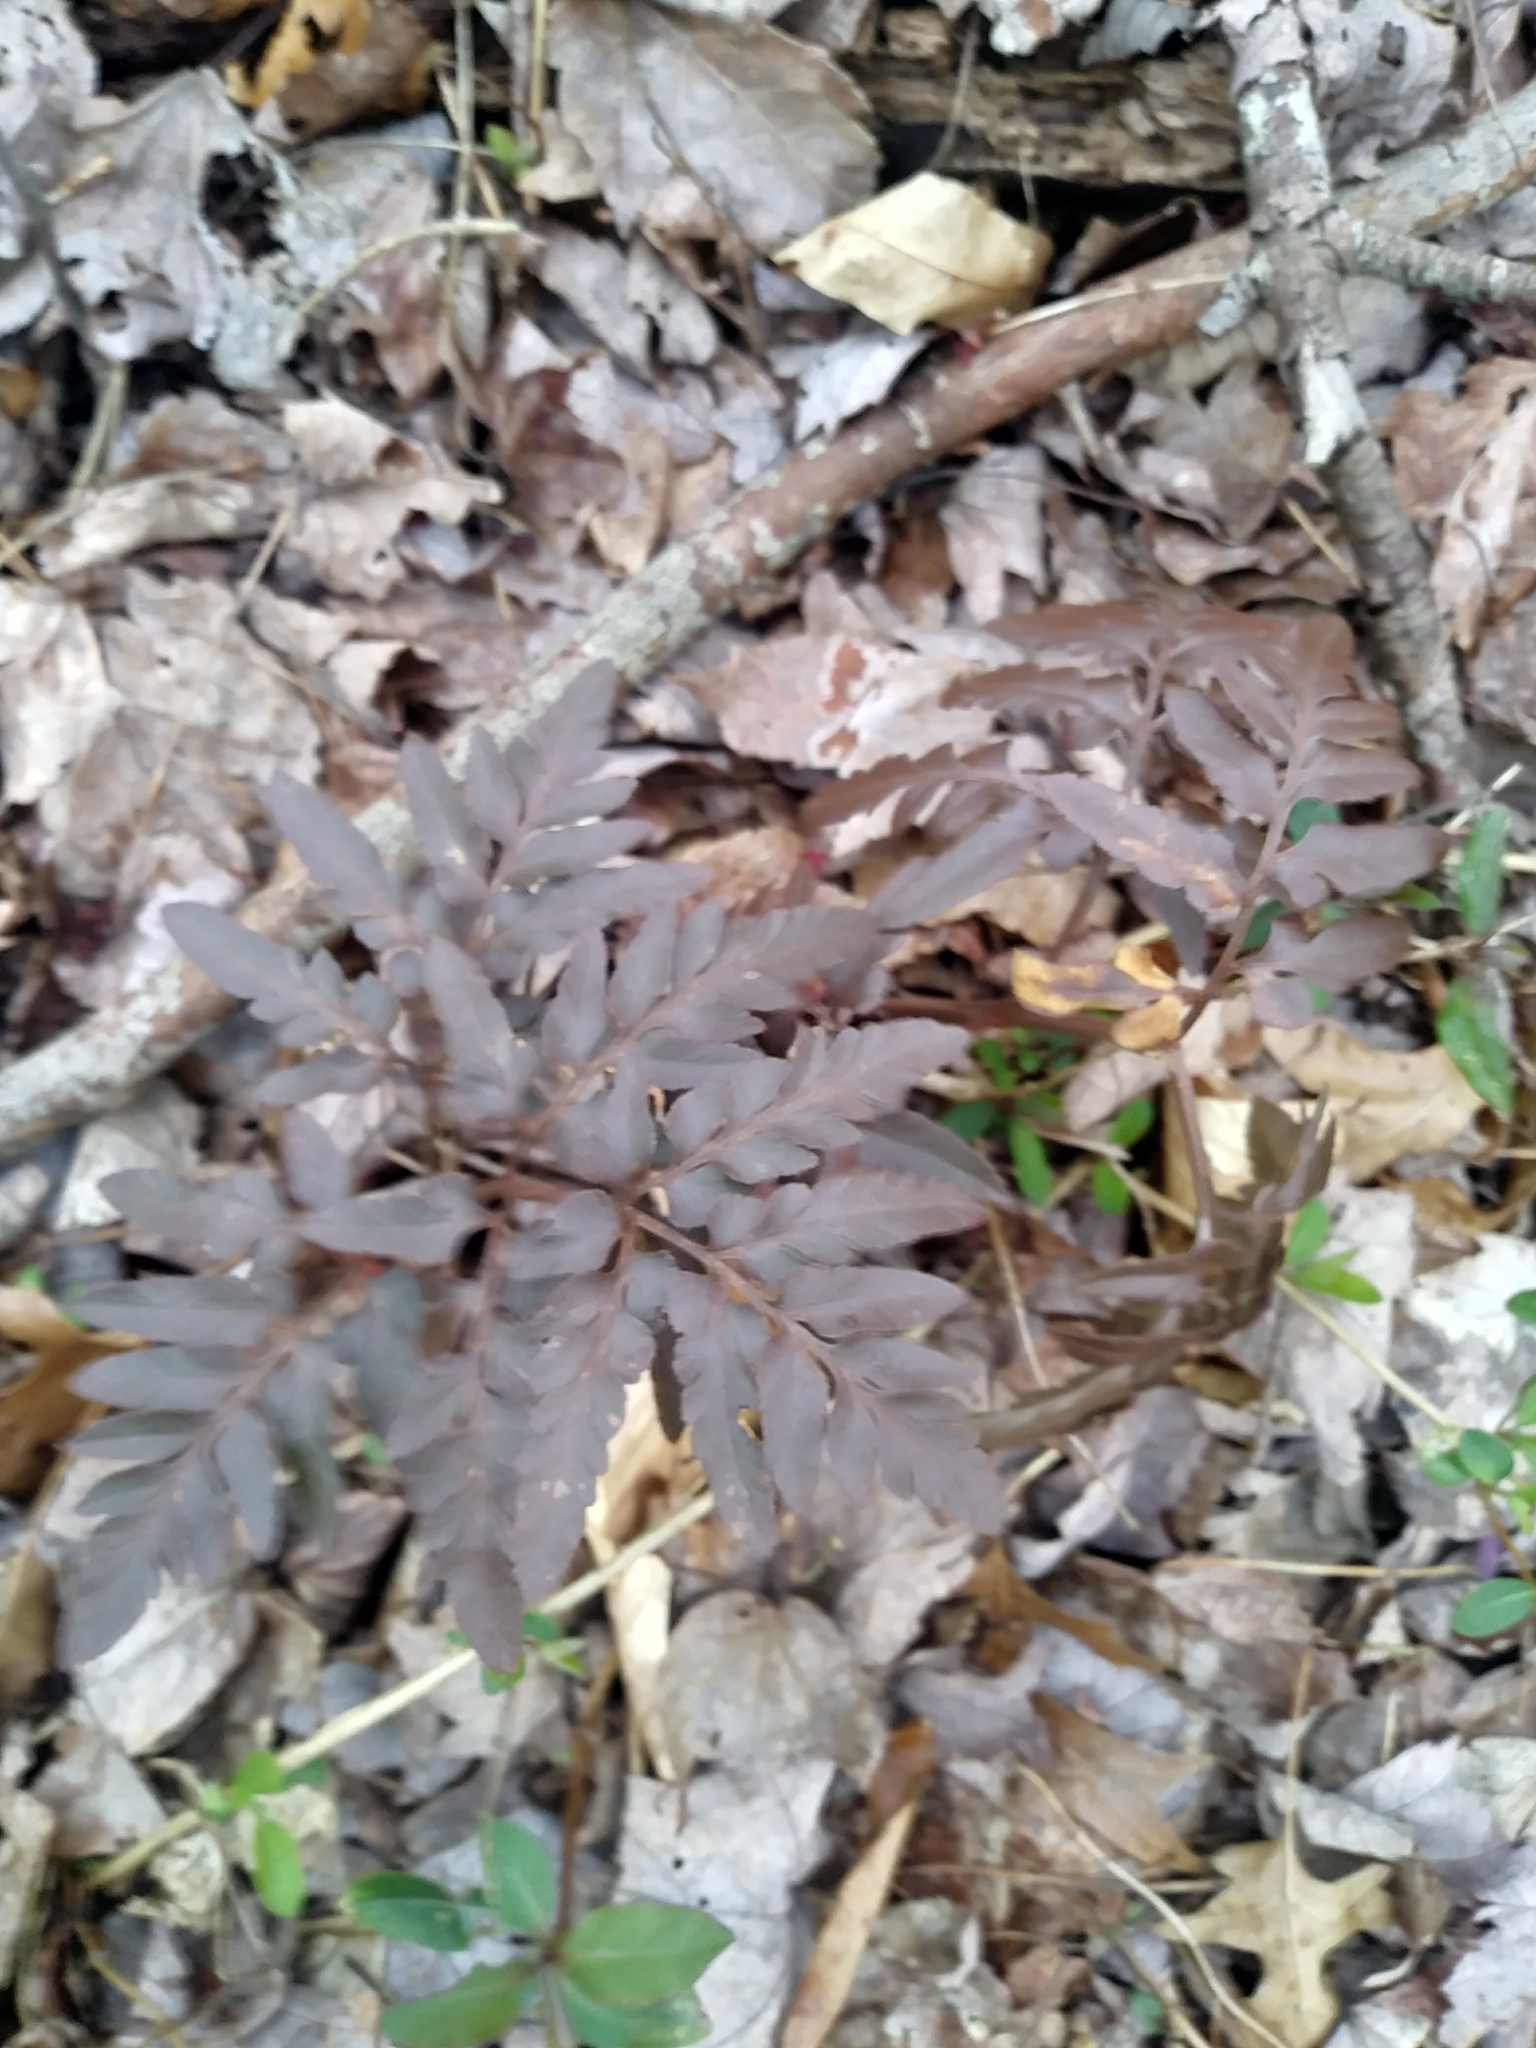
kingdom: Plantae
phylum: Tracheophyta
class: Polypodiopsida
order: Ophioglossales
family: Ophioglossaceae
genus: Sceptridium
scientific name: Sceptridium dissectum
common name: Cut-leaved grapefern
